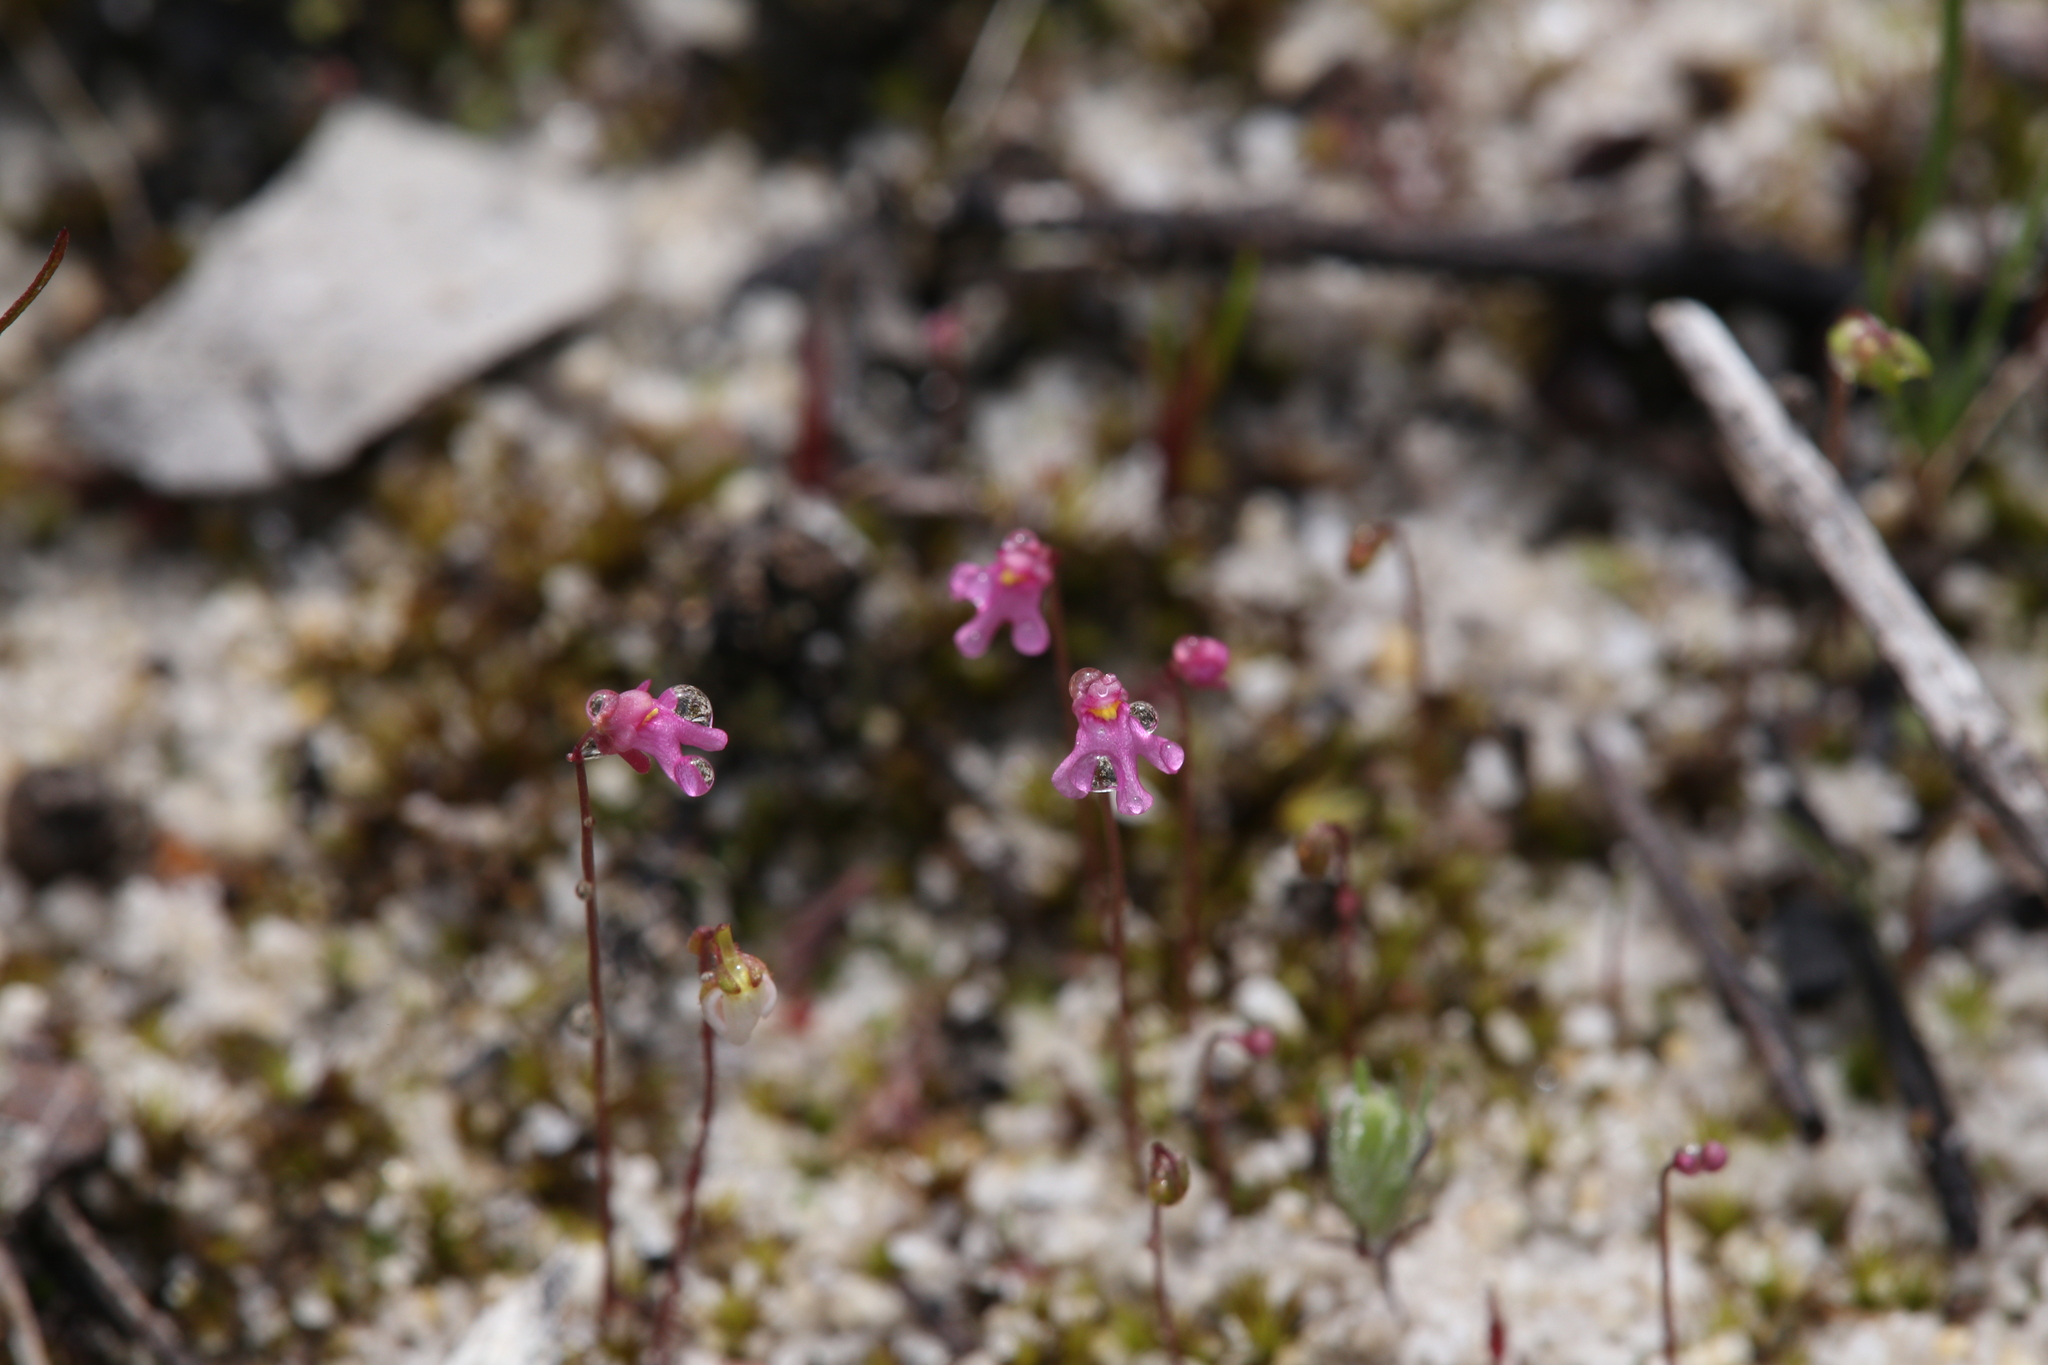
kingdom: Plantae
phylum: Tracheophyta
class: Magnoliopsida
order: Lamiales
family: Lentibulariaceae
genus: Utricularia
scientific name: Utricularia tenella
